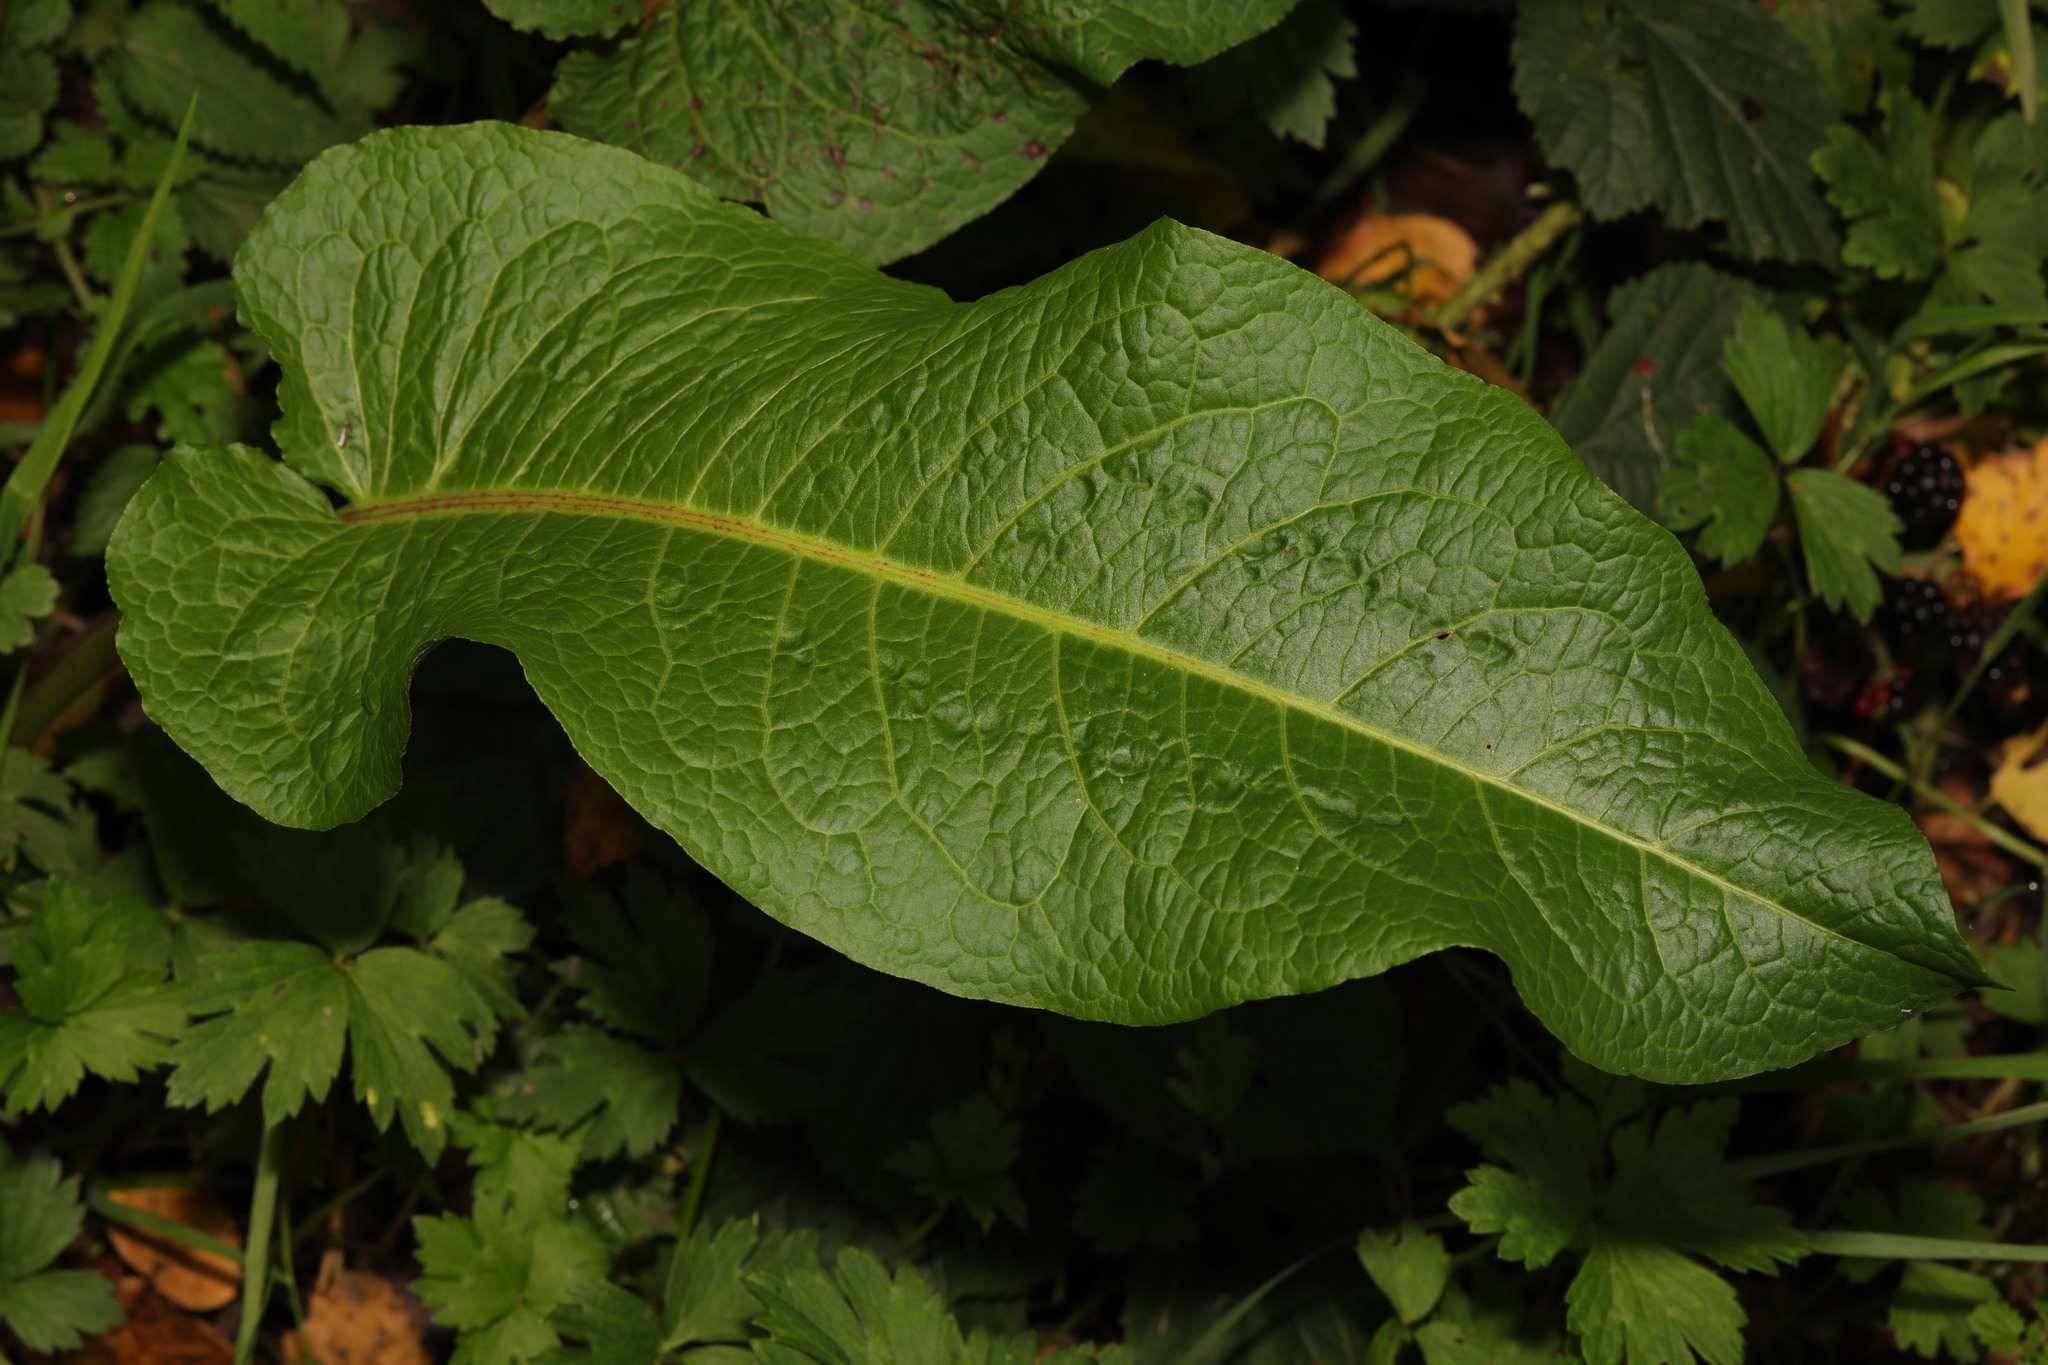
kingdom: Plantae
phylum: Tracheophyta
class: Magnoliopsida
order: Caryophyllales
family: Polygonaceae
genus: Rumex
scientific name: Rumex obtusifolius
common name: Bitter dock
